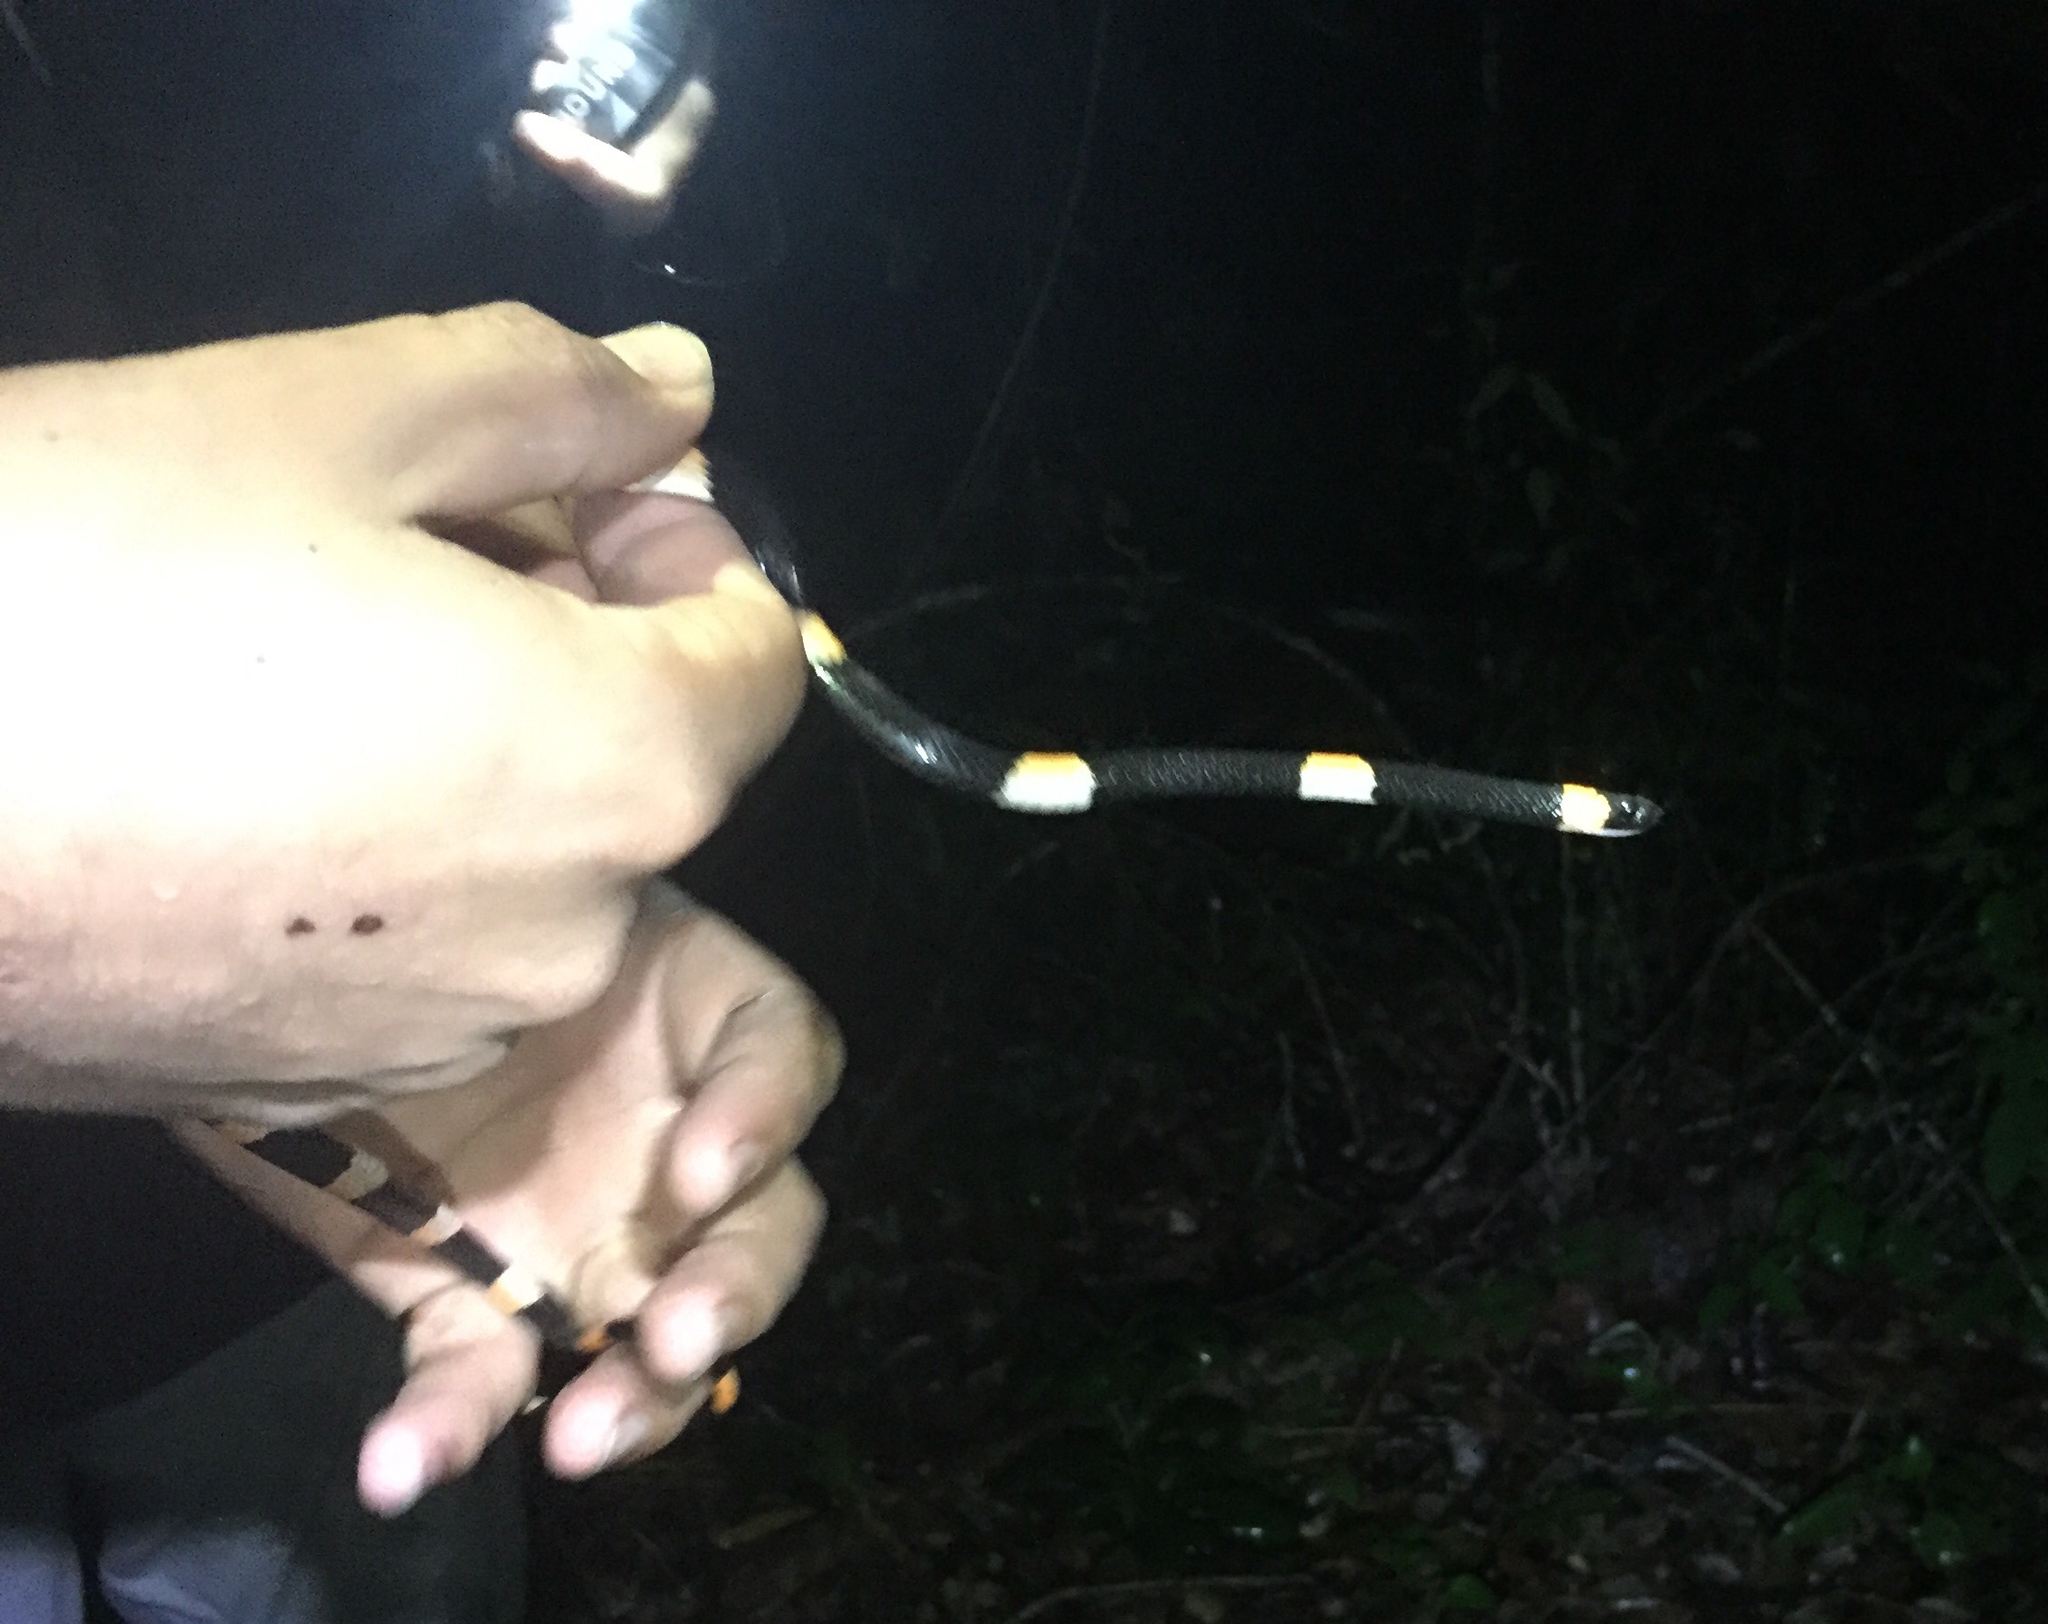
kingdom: Animalia
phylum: Chordata
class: Squamata
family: Colubridae
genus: Dipsas
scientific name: Dipsas brevifacies
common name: Snail-eating thirst snake
